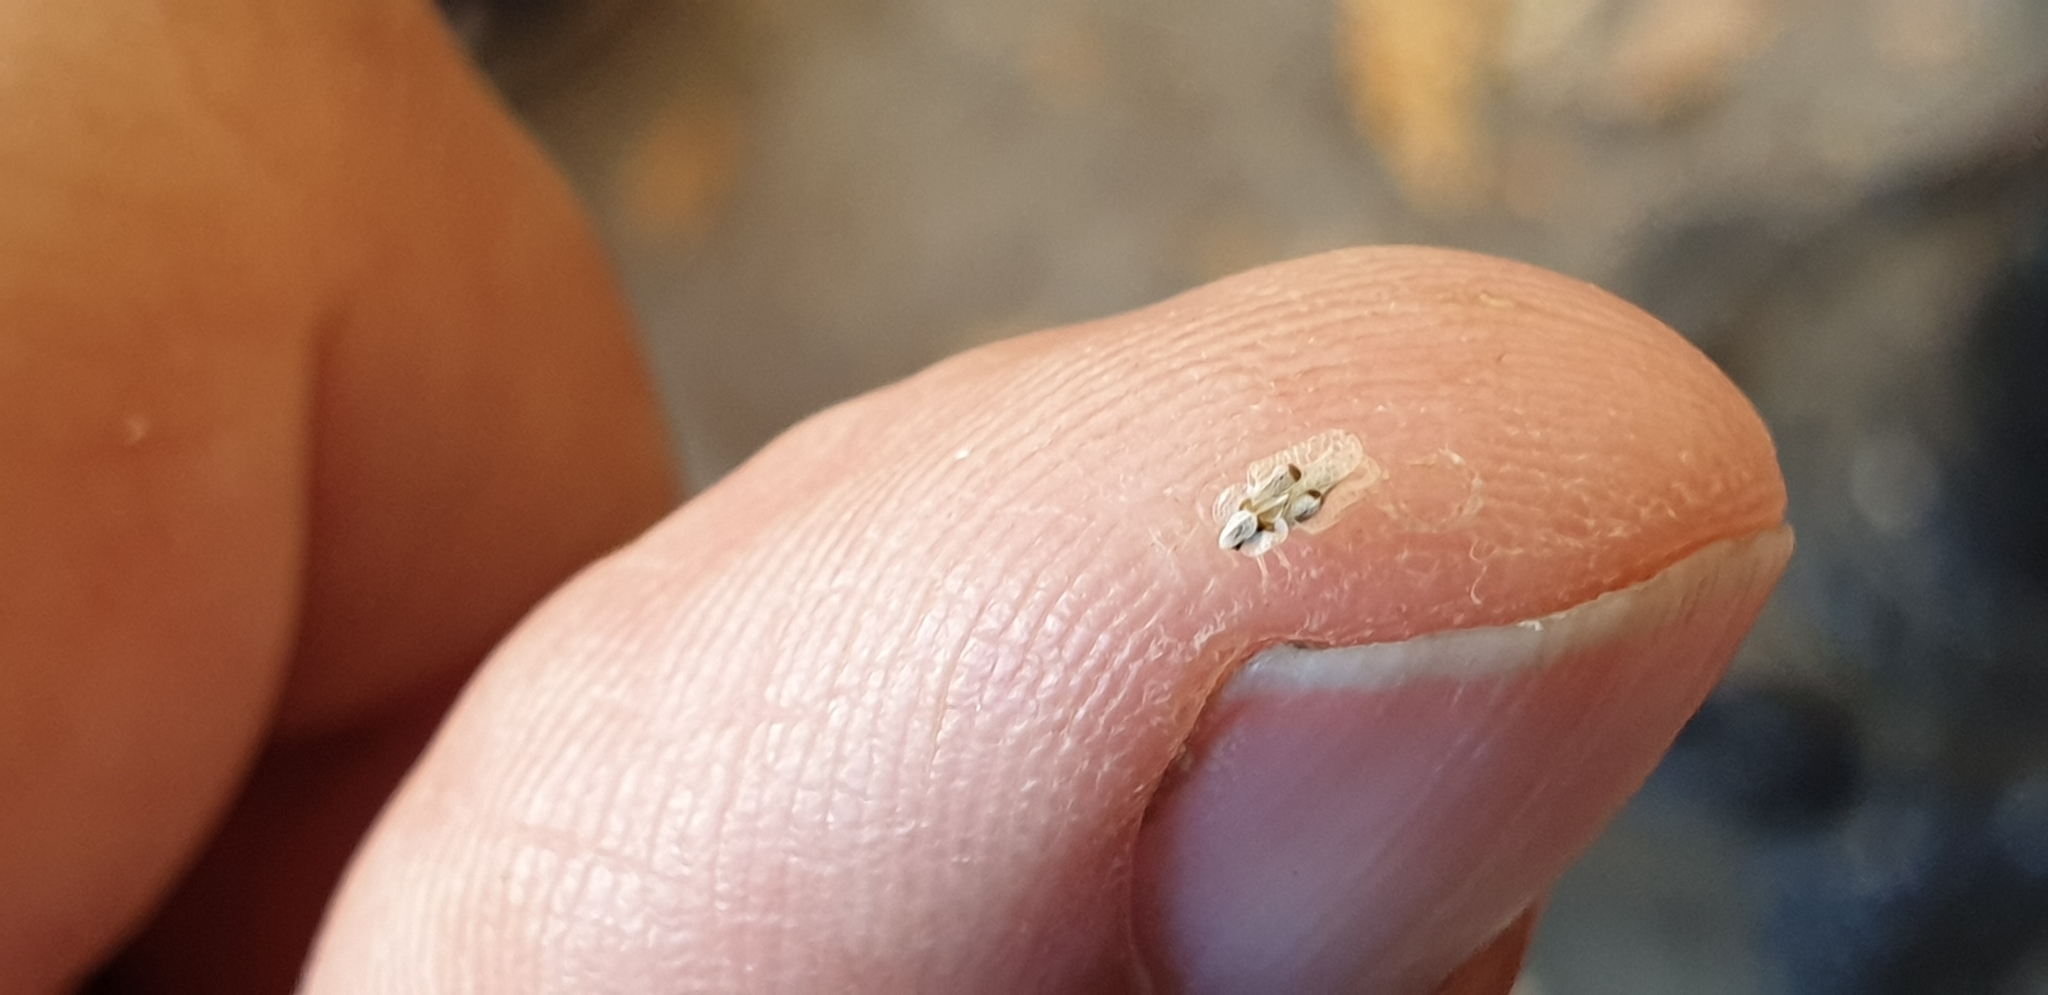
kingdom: Animalia
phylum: Arthropoda
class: Insecta
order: Hemiptera
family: Tingidae
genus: Corythucha
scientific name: Corythucha ciliata
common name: Sycamore lace bug
